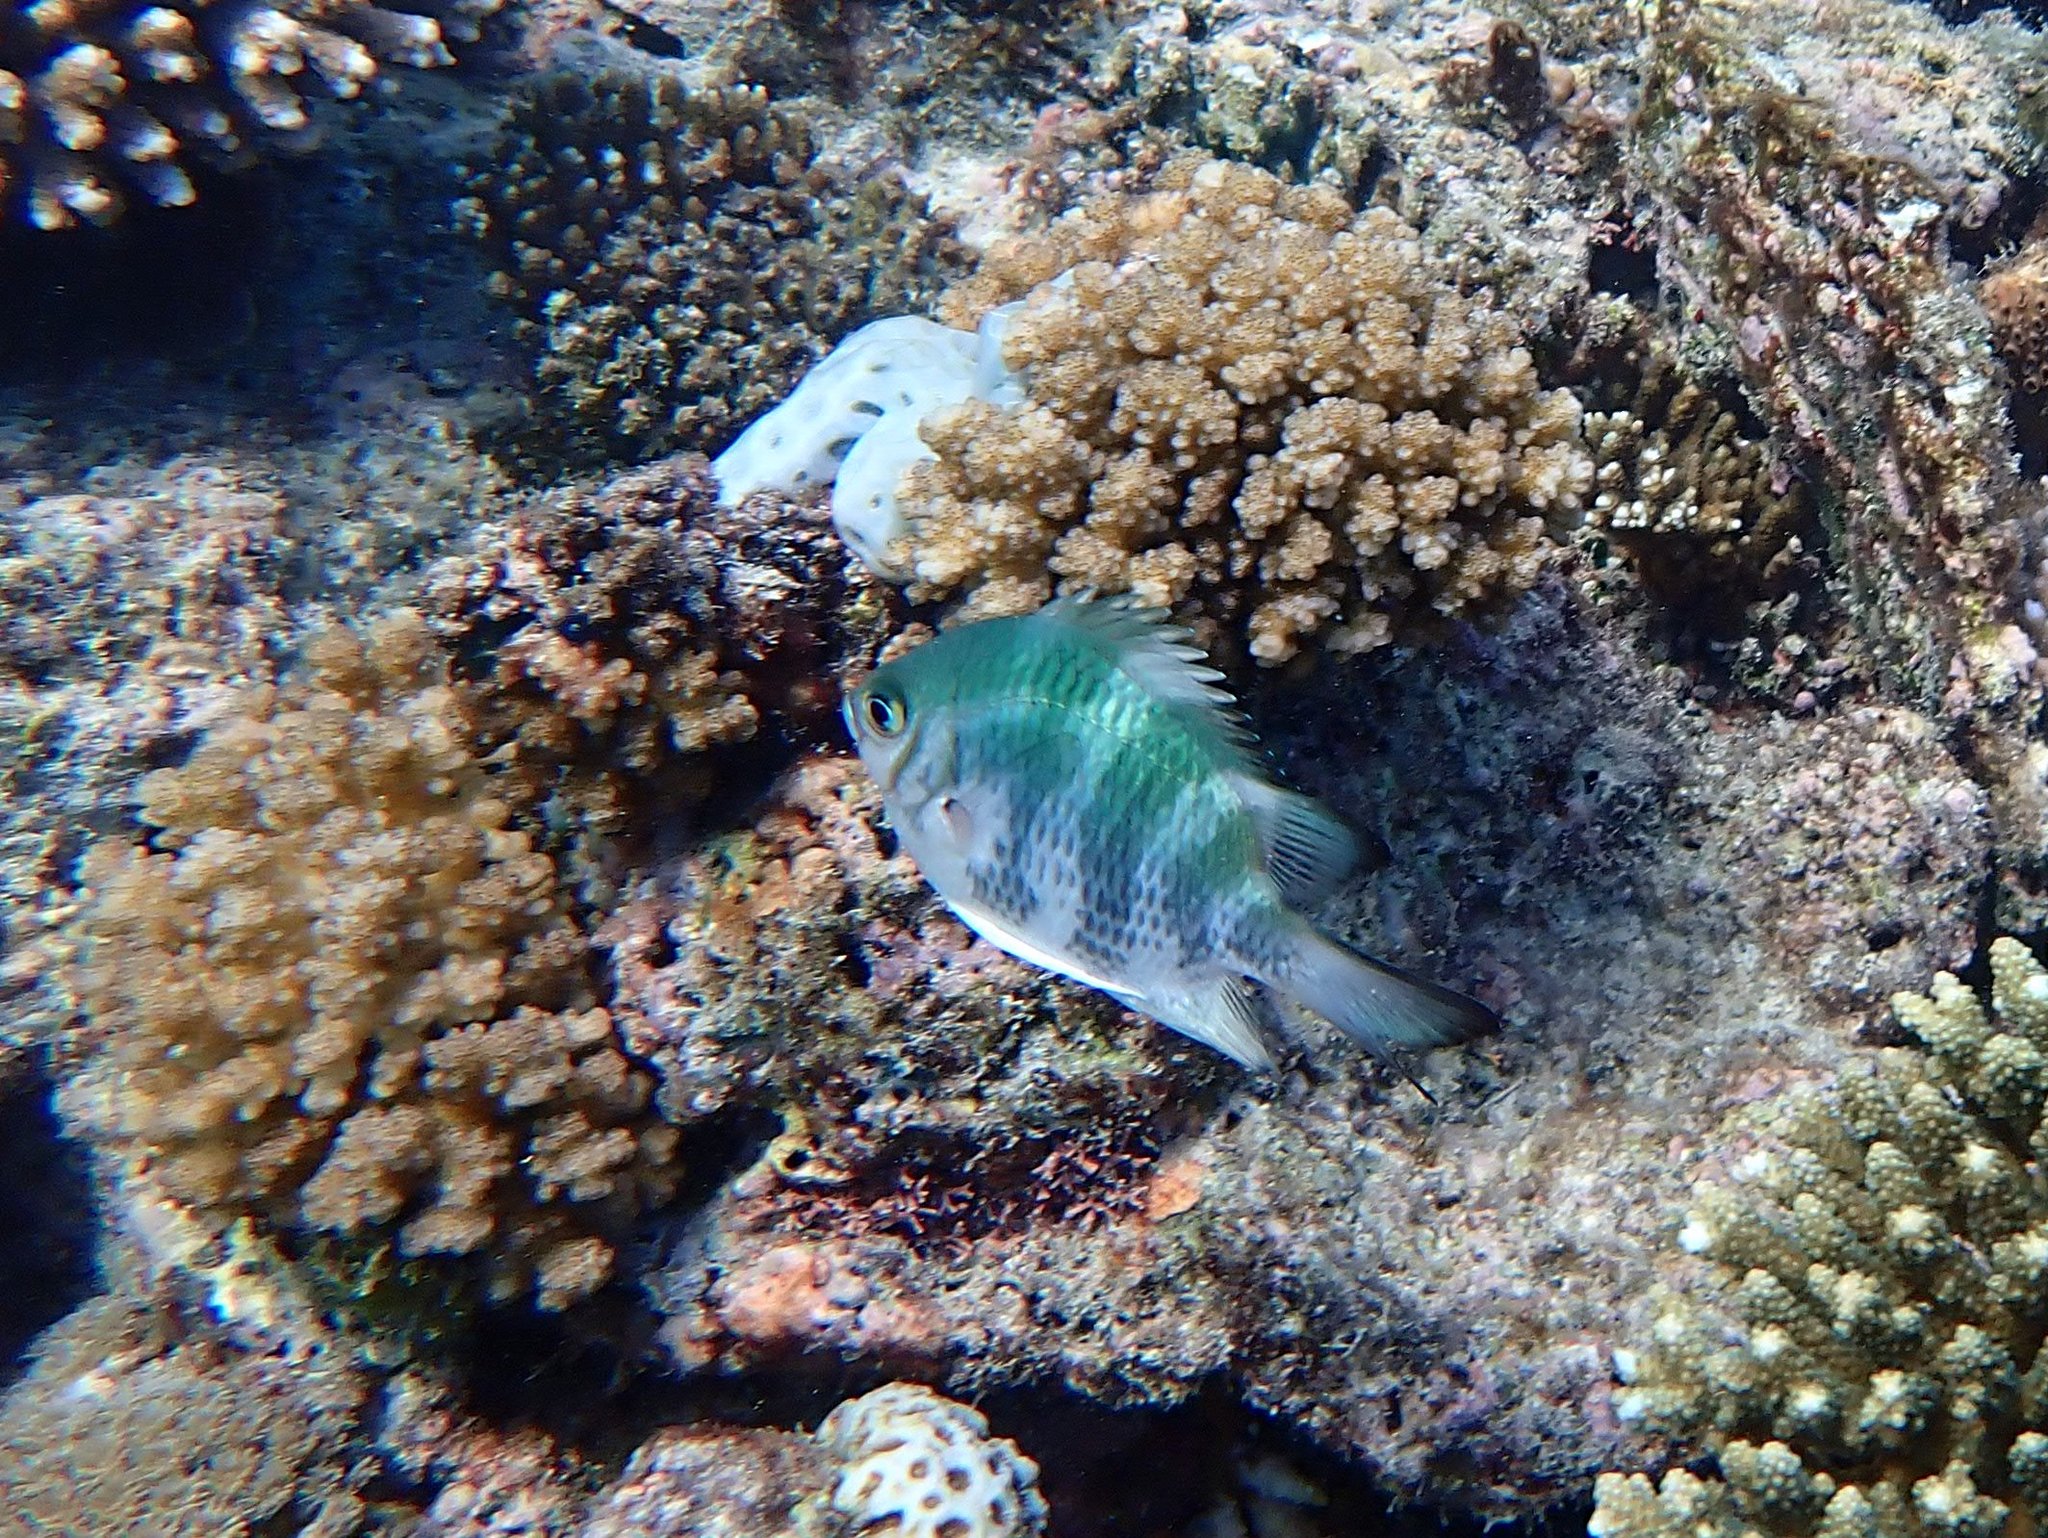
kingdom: Animalia
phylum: Chordata
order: Perciformes
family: Pomacentridae
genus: Amblyglyphidodon
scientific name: Amblyglyphidodon curacao
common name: Staghorn damsel
